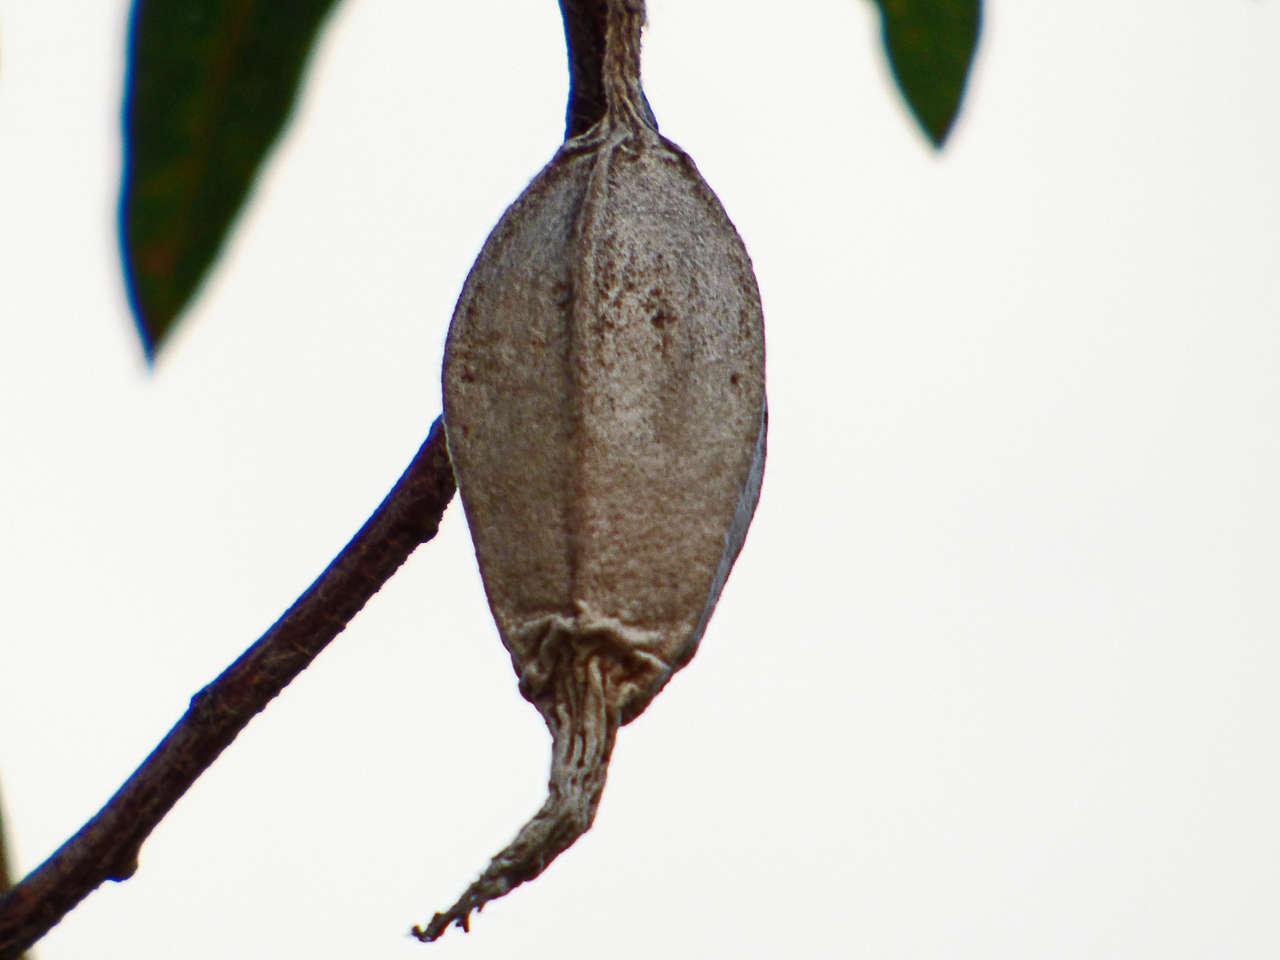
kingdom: Animalia
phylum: Arthropoda
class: Insecta
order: Lepidoptera
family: Psychidae
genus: Hyalarcta
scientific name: Hyalarcta nigrescens
